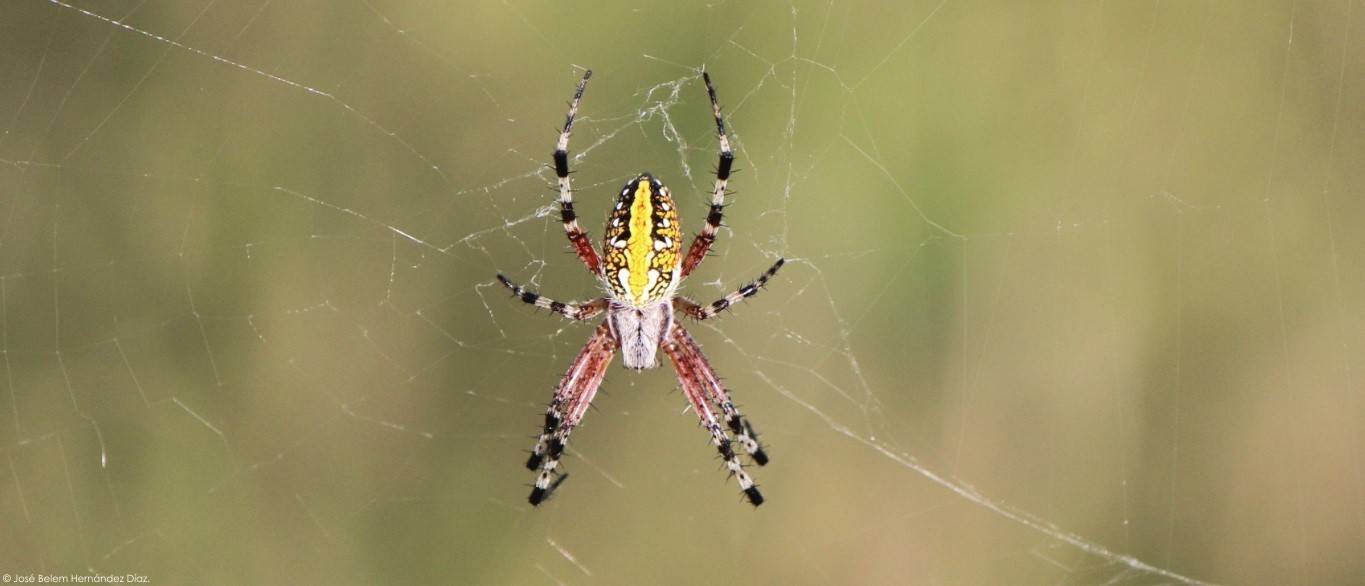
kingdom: Animalia
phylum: Arthropoda
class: Arachnida
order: Araneae
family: Araneidae
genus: Neoscona
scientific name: Neoscona oaxacensis
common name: Orb weavers
